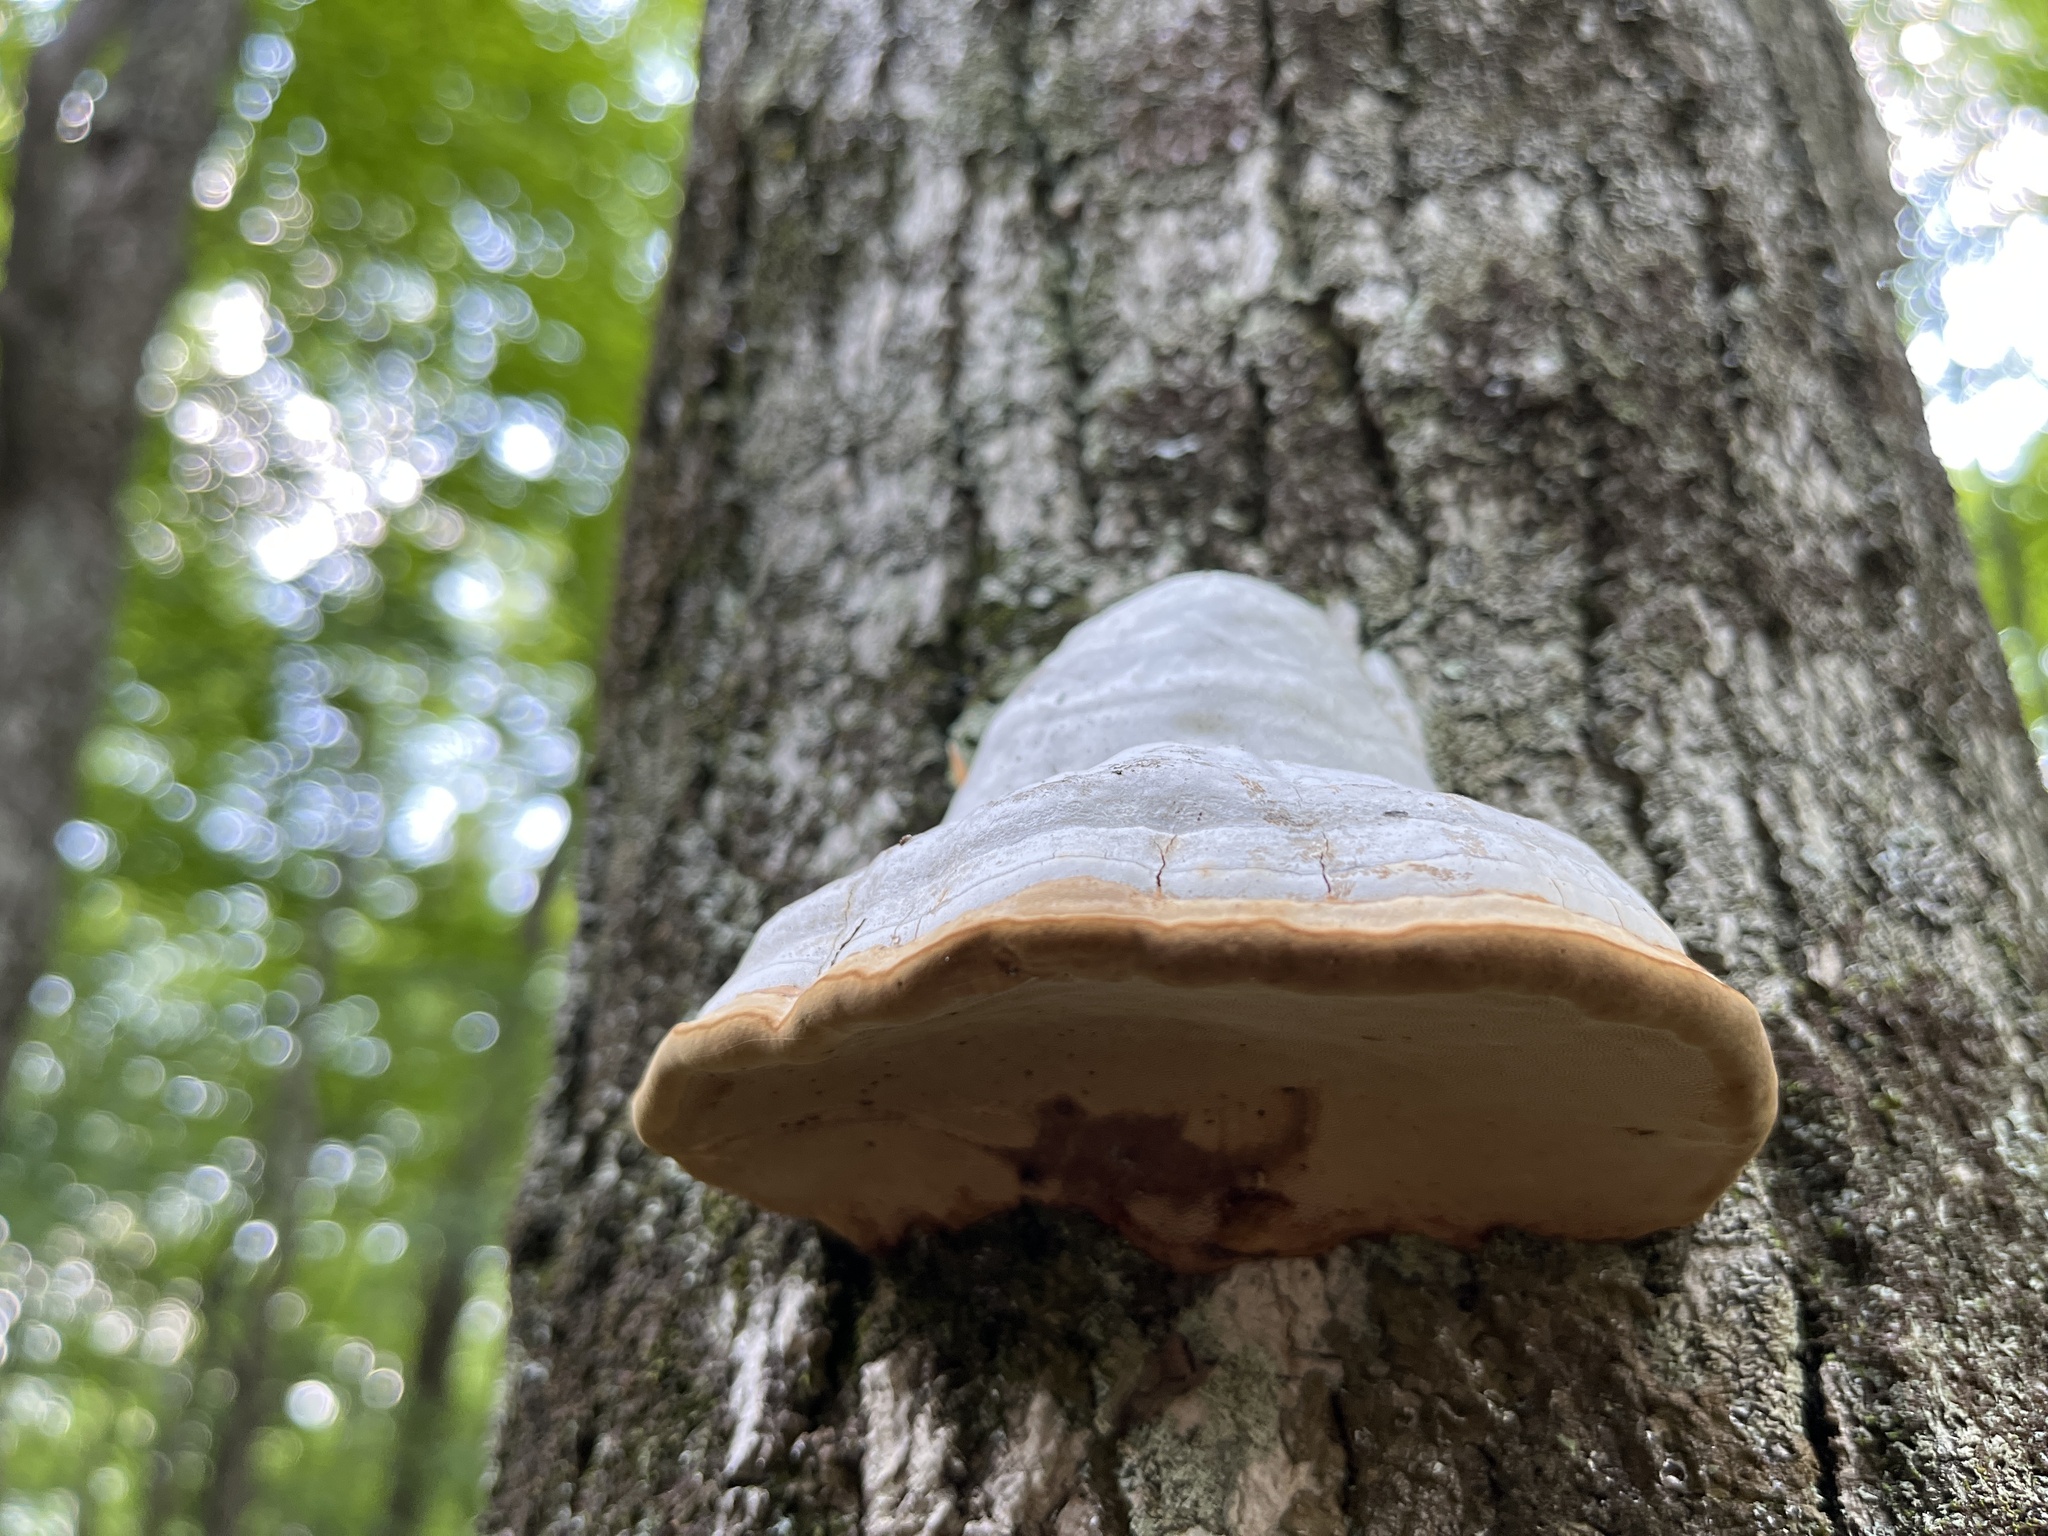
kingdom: Fungi
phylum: Basidiomycota
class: Agaricomycetes
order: Polyporales
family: Polyporaceae
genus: Fomes
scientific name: Fomes fomentarius
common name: Hoof fungus
